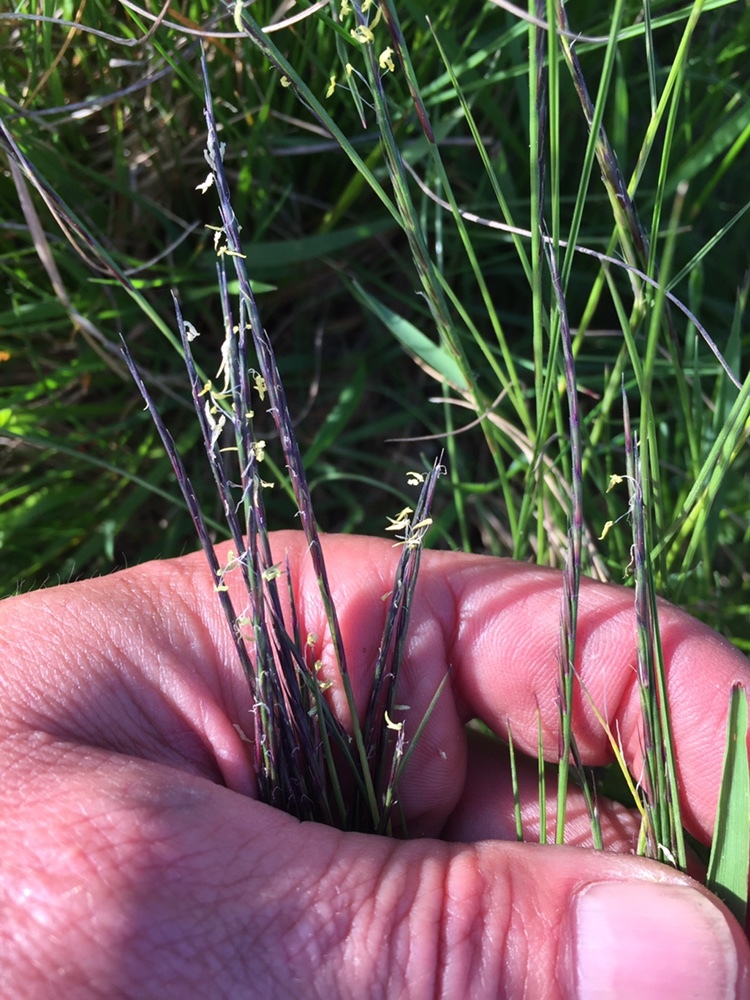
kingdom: Plantae
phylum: Tracheophyta
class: Liliopsida
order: Poales
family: Poaceae
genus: Nardus
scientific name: Nardus stricta
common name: Mat-grass
